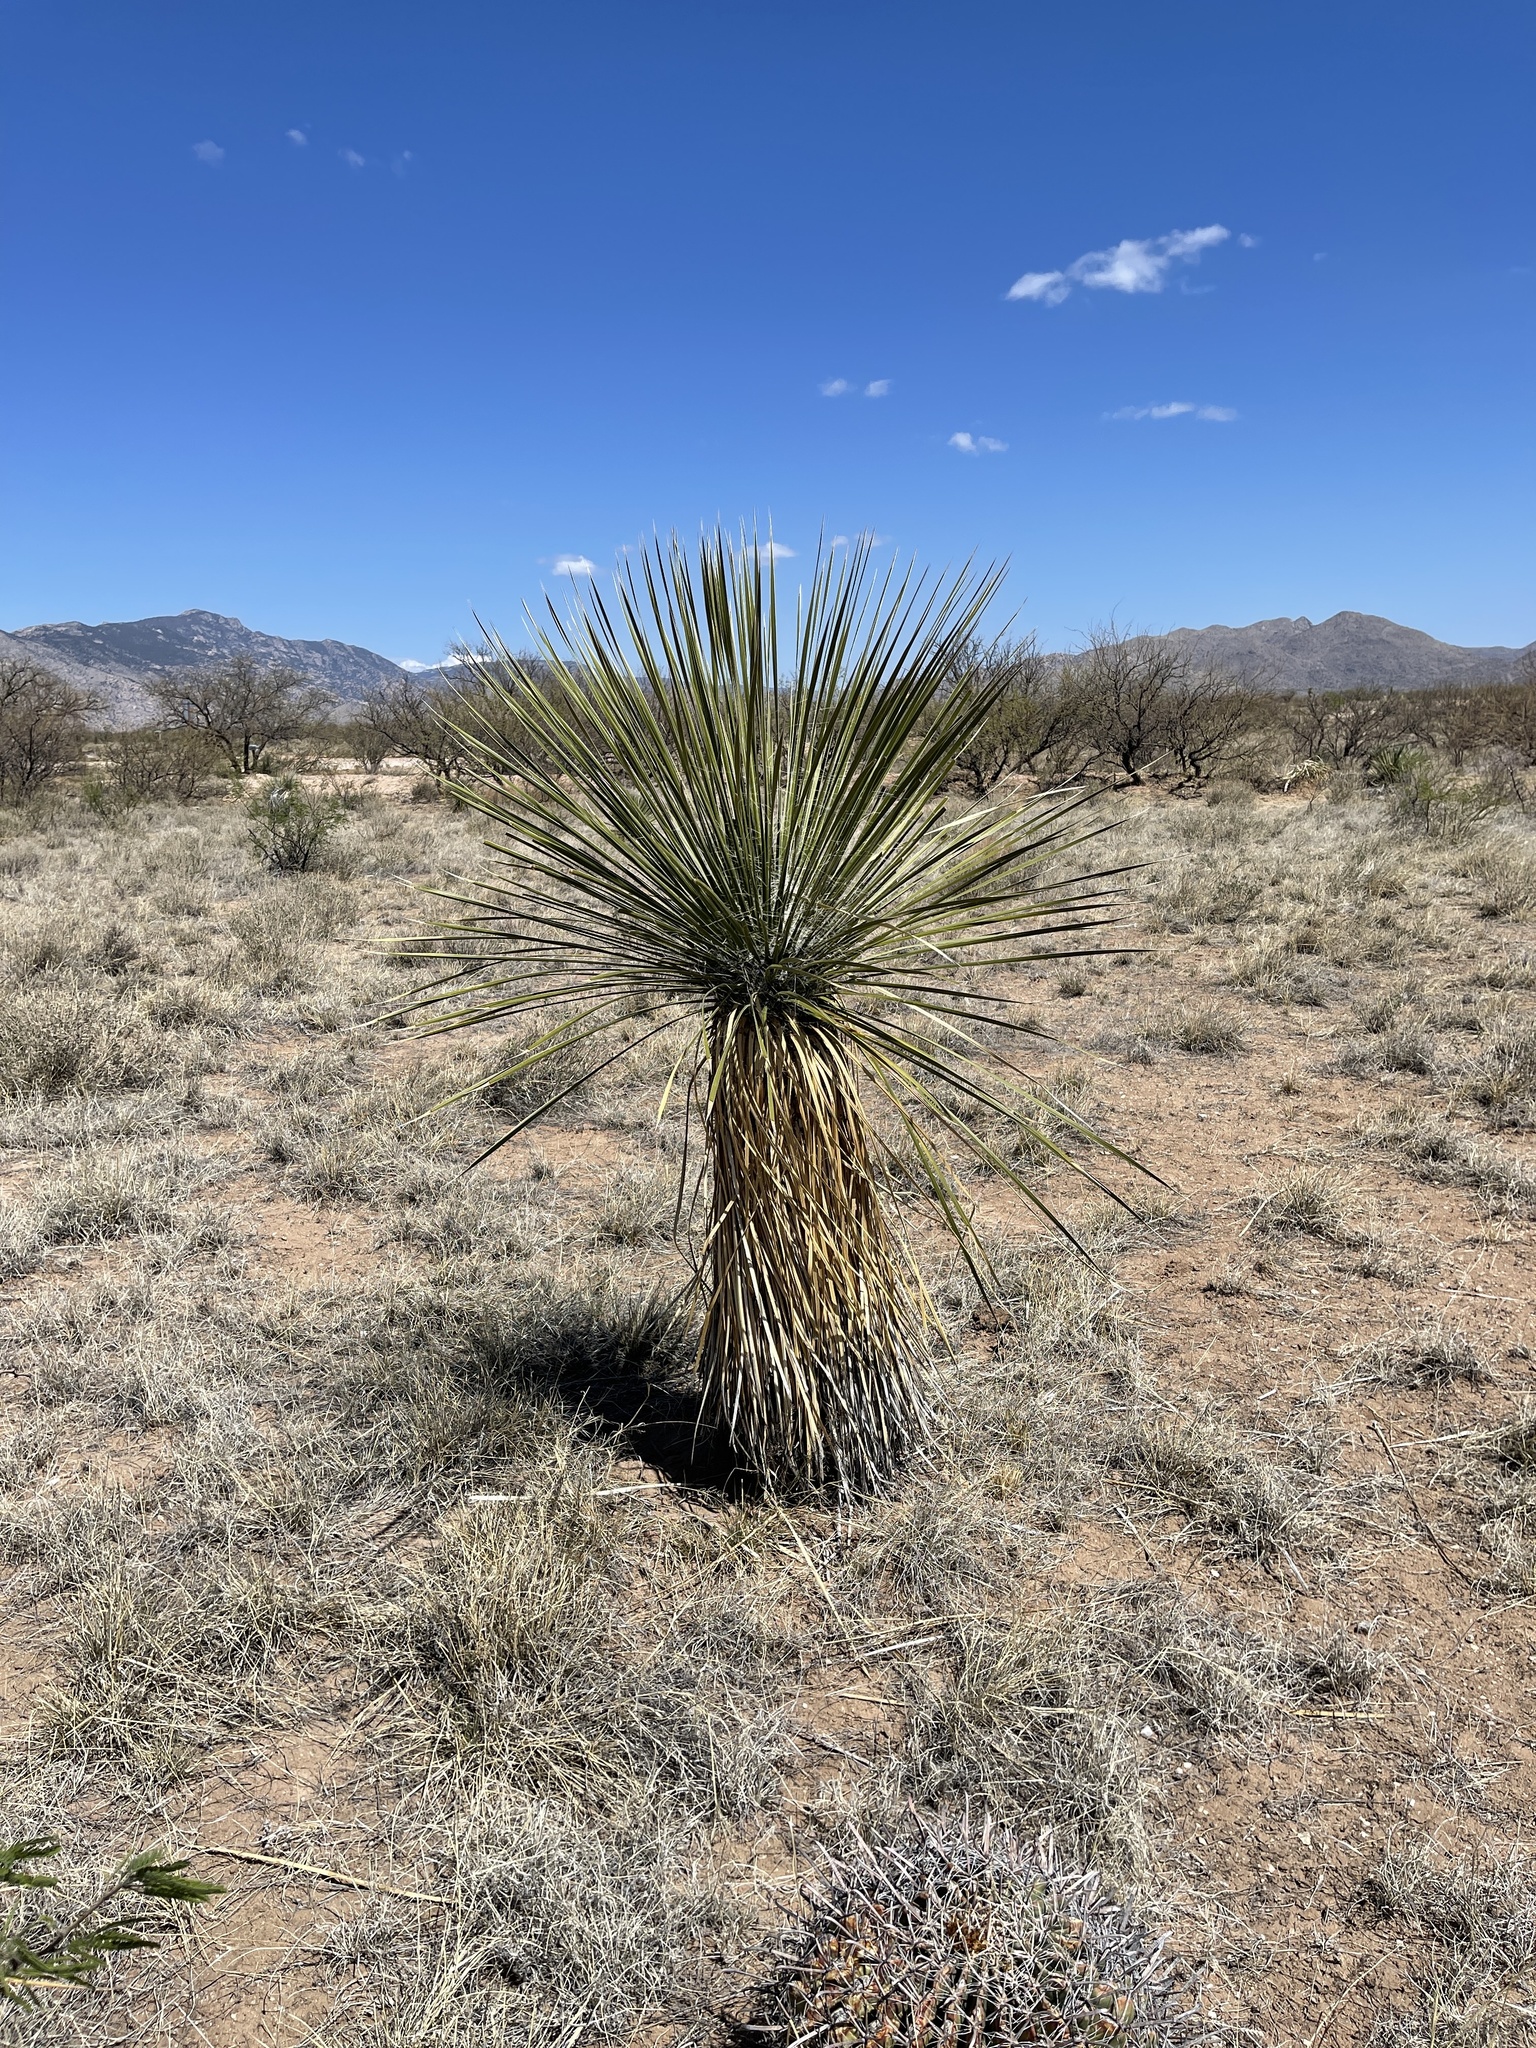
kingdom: Plantae
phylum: Tracheophyta
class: Liliopsida
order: Asparagales
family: Asparagaceae
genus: Yucca
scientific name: Yucca elata
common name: Palmella
